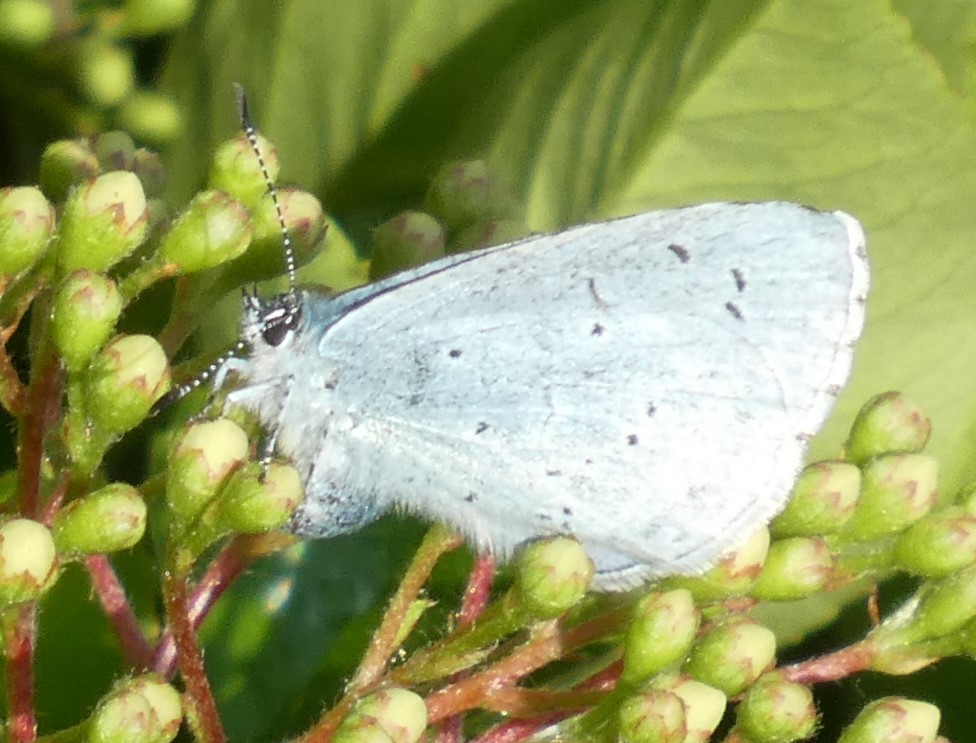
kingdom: Animalia
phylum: Arthropoda
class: Insecta
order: Lepidoptera
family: Lycaenidae
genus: Celastrina
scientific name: Celastrina argiolus
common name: Holly blue
